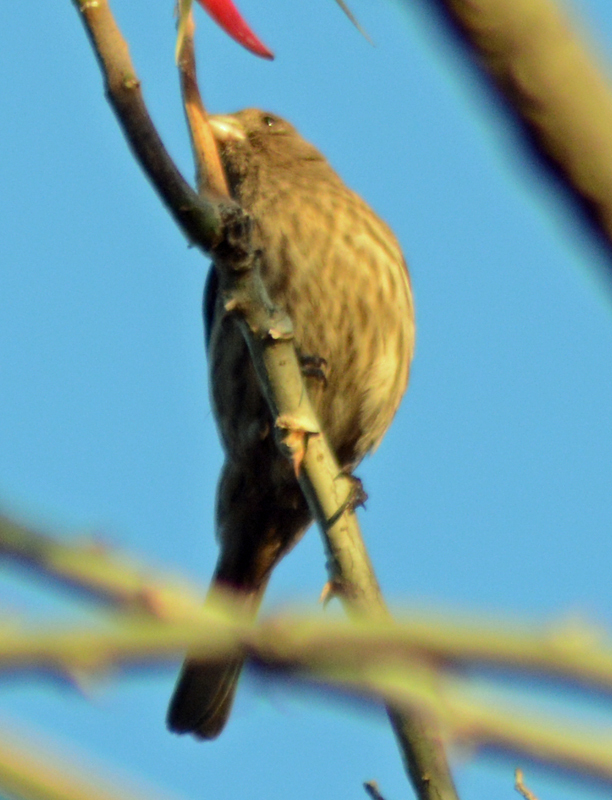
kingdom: Animalia
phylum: Chordata
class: Aves
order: Passeriformes
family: Fringillidae
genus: Haemorhous
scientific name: Haemorhous mexicanus
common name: House finch
